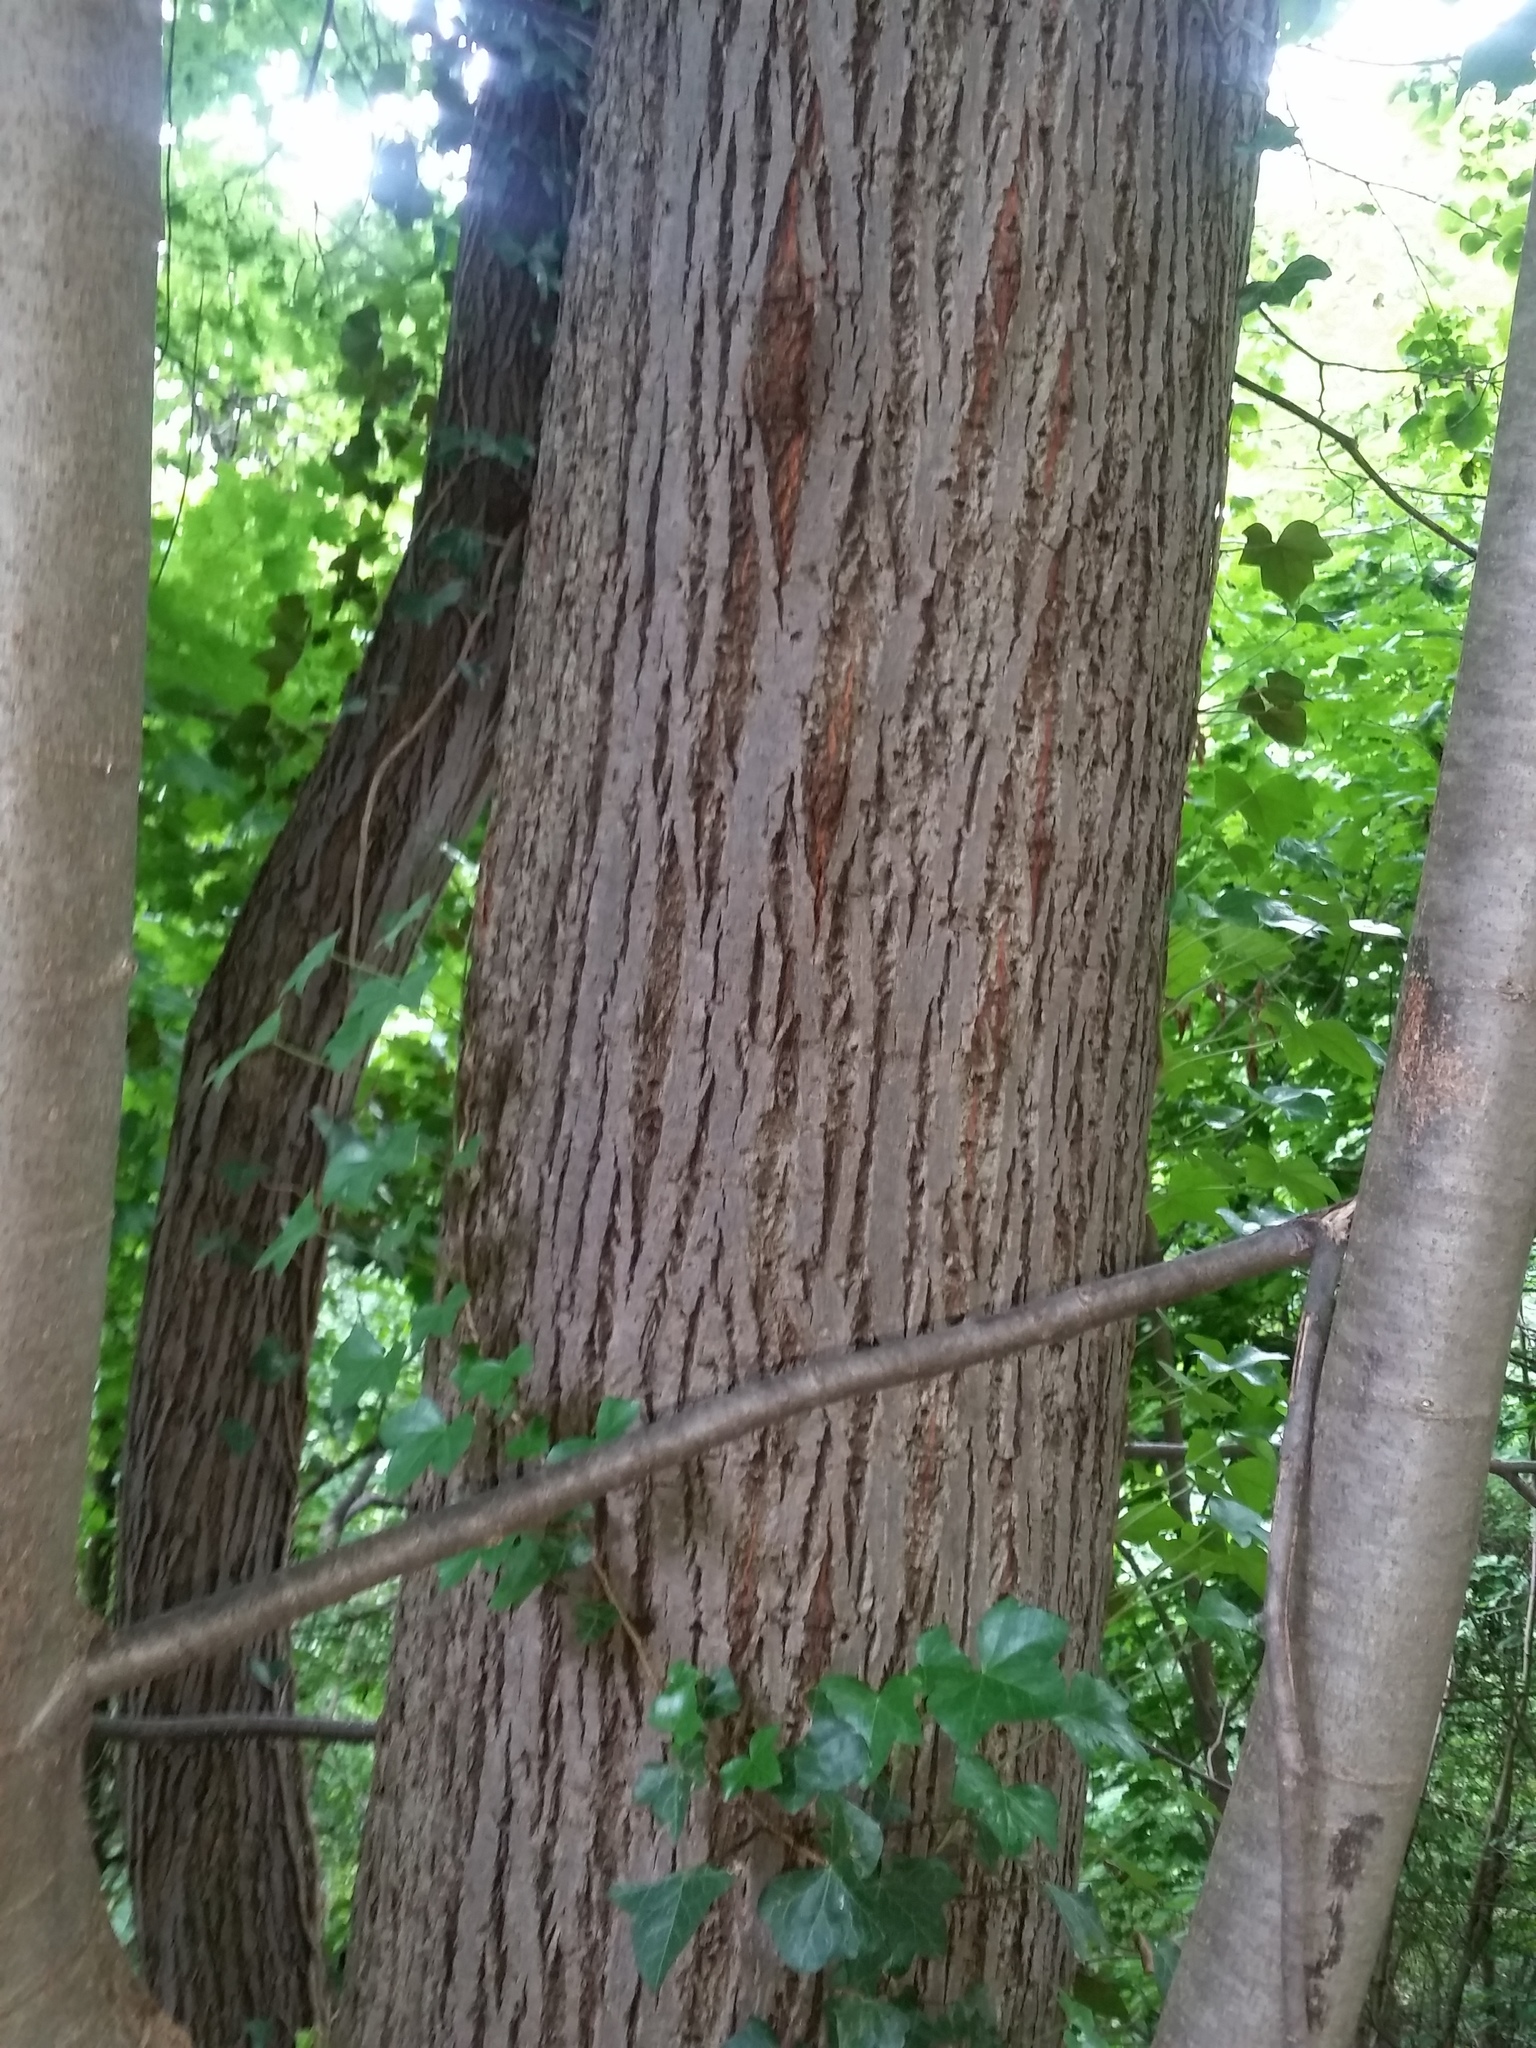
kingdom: Plantae
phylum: Tracheophyta
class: Magnoliopsida
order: Malvales
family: Malvaceae
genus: Tilia
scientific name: Tilia americana
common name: Basswood
